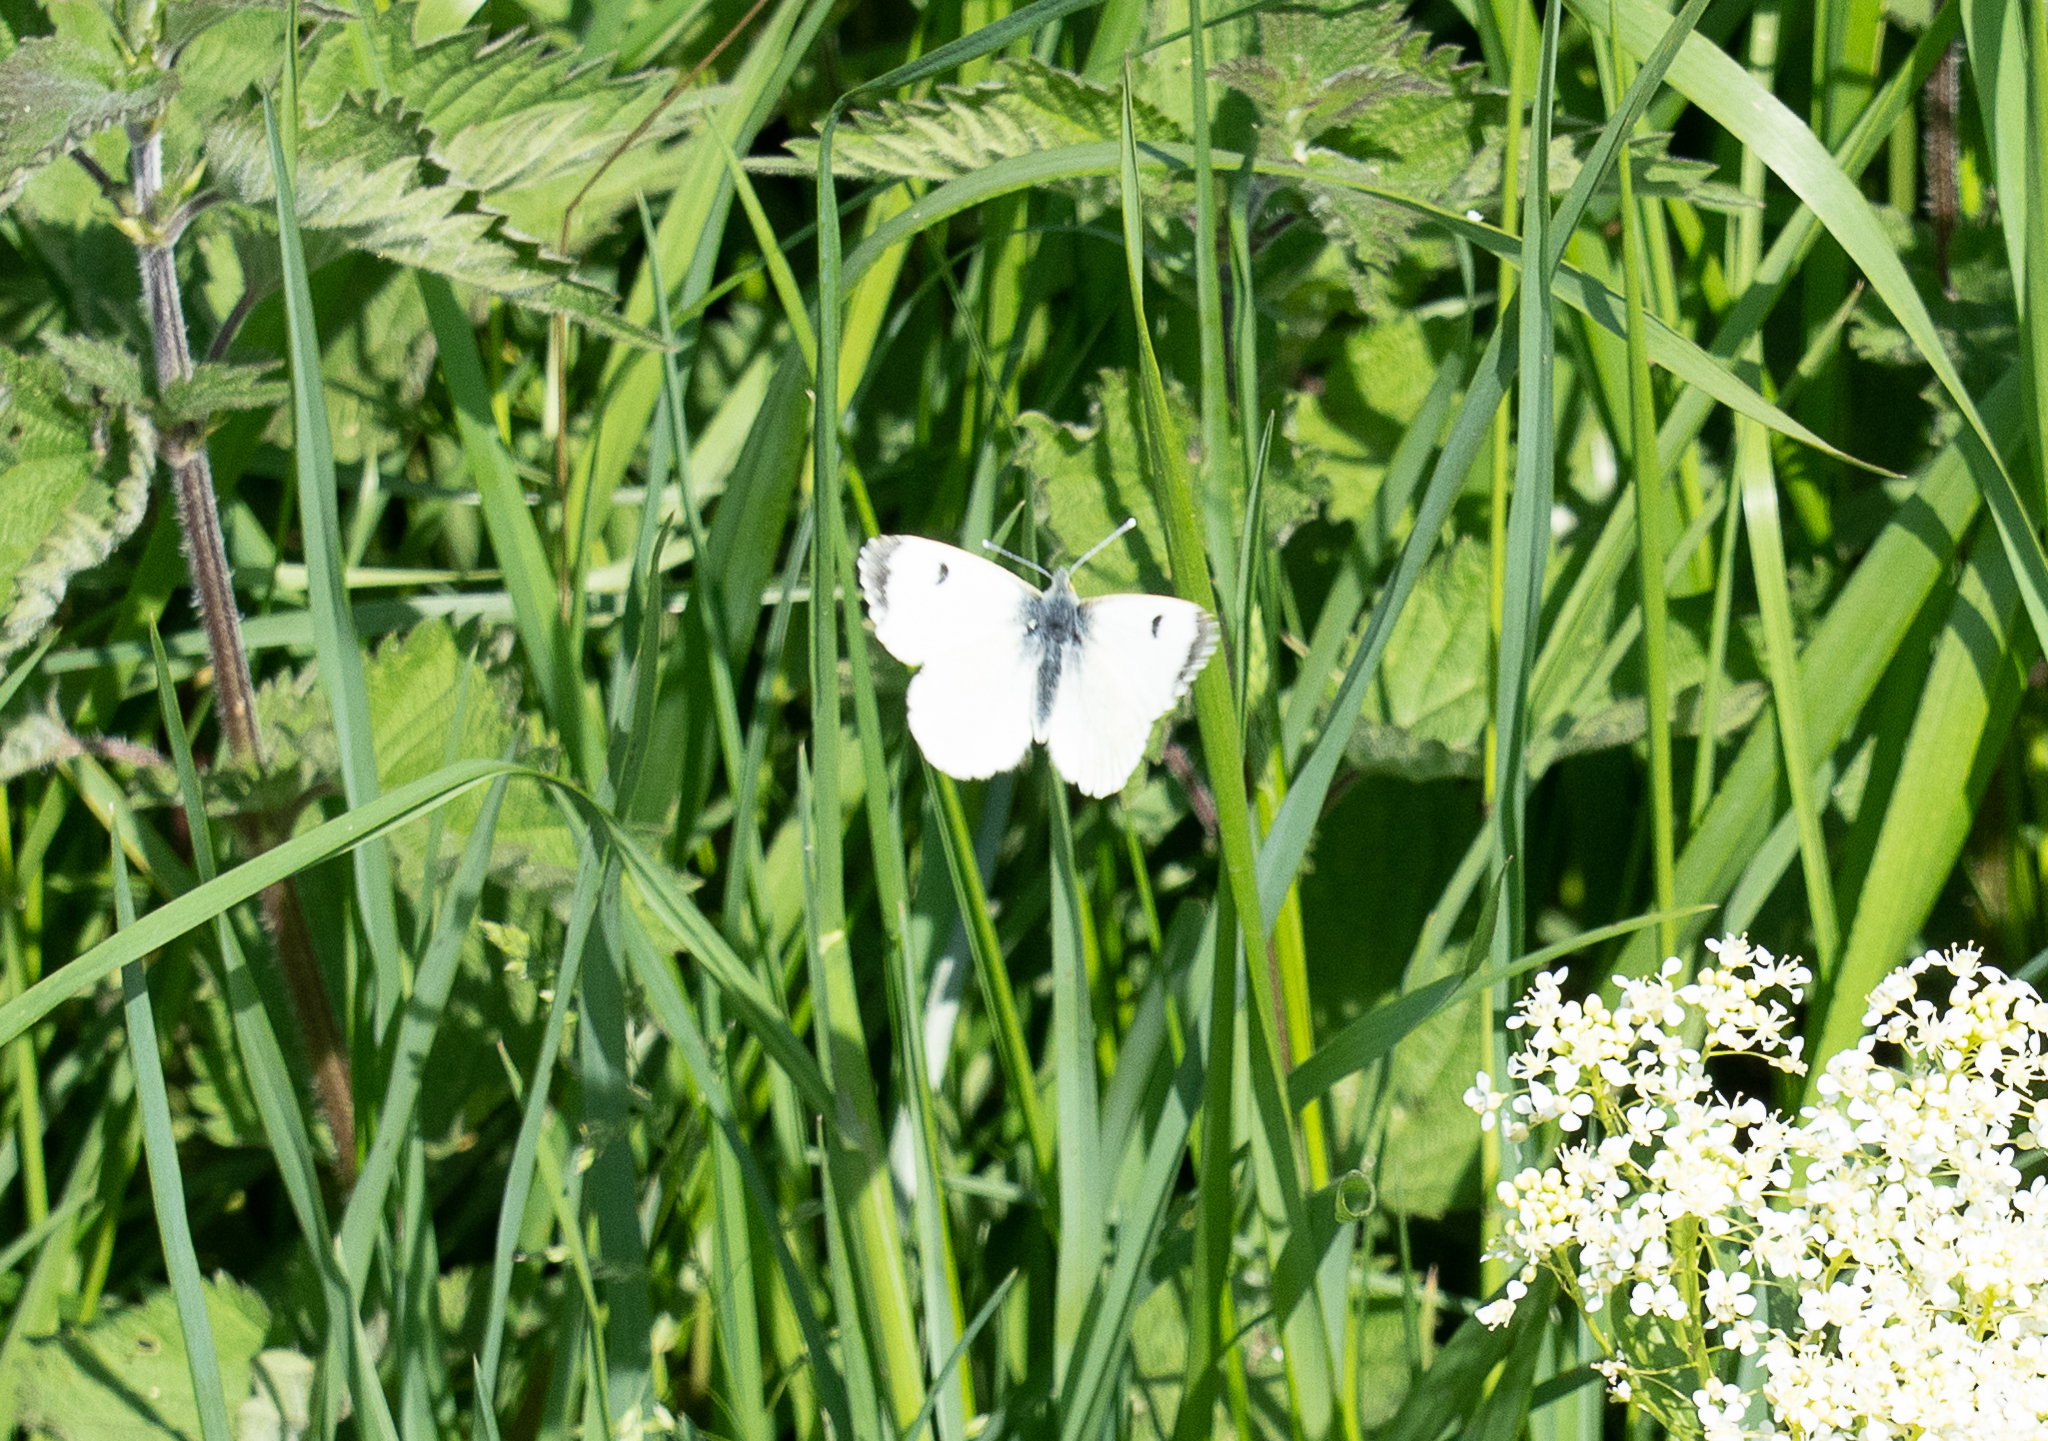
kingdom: Animalia
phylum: Arthropoda
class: Insecta
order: Lepidoptera
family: Pieridae
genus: Anthocharis
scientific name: Anthocharis cardamines
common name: Orange-tip
